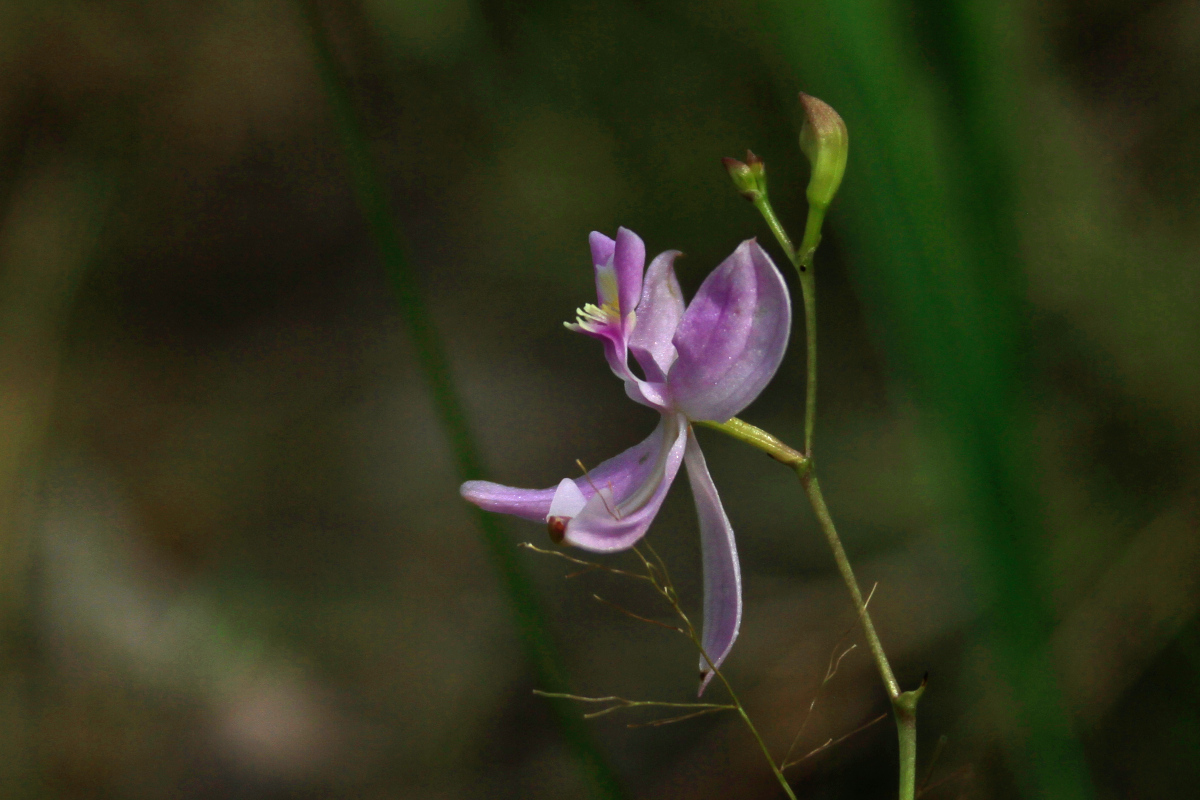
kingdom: Plantae
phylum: Tracheophyta
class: Liliopsida
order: Asparagales
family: Orchidaceae
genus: Calopogon
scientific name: Calopogon pallidus
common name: Pale grasspink
